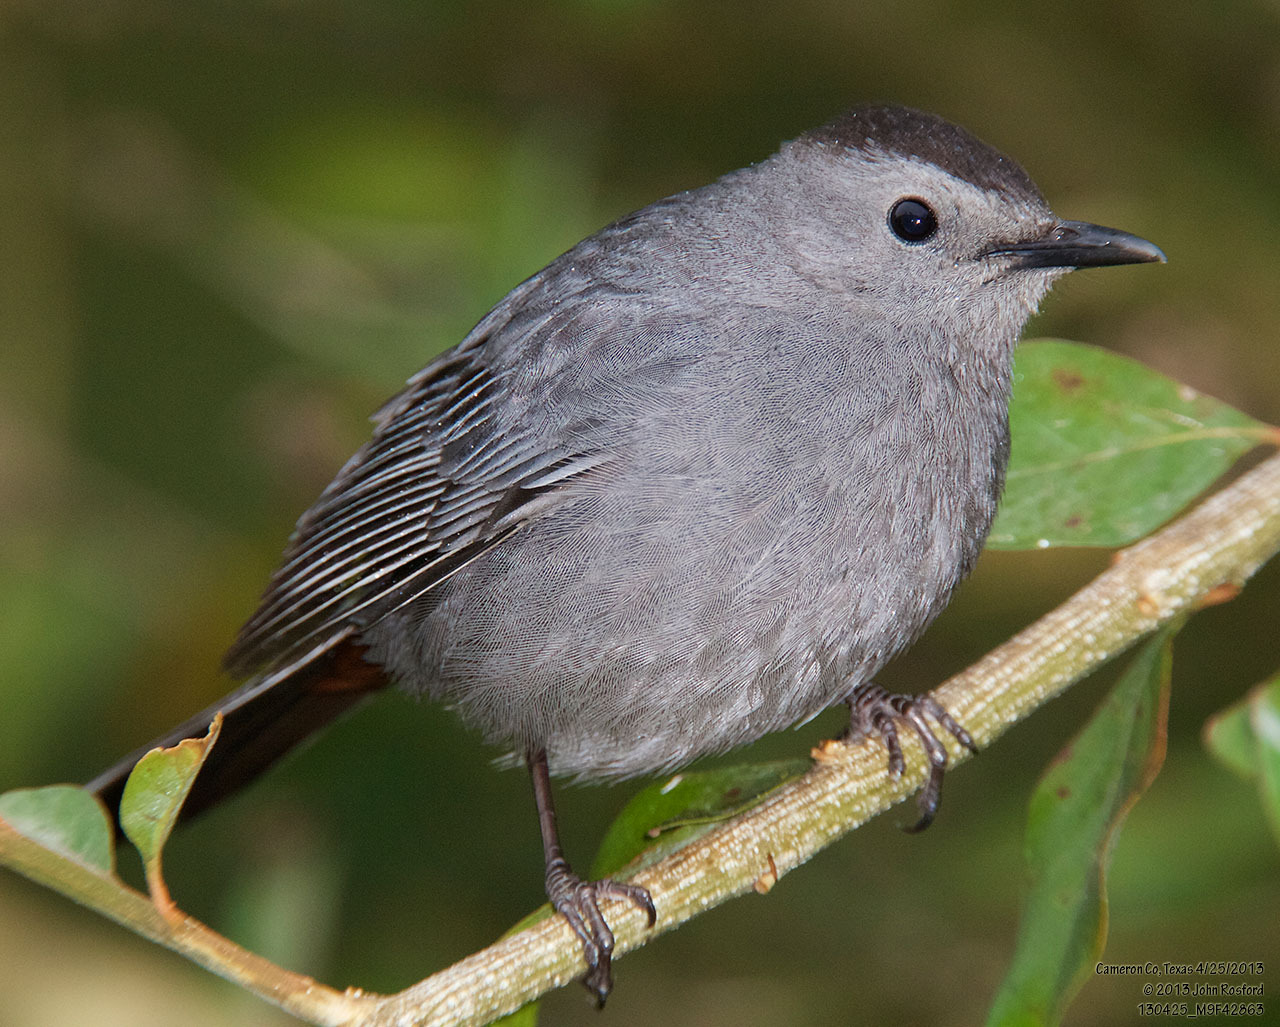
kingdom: Animalia
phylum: Chordata
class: Aves
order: Passeriformes
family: Mimidae
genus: Dumetella
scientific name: Dumetella carolinensis
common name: Gray catbird
